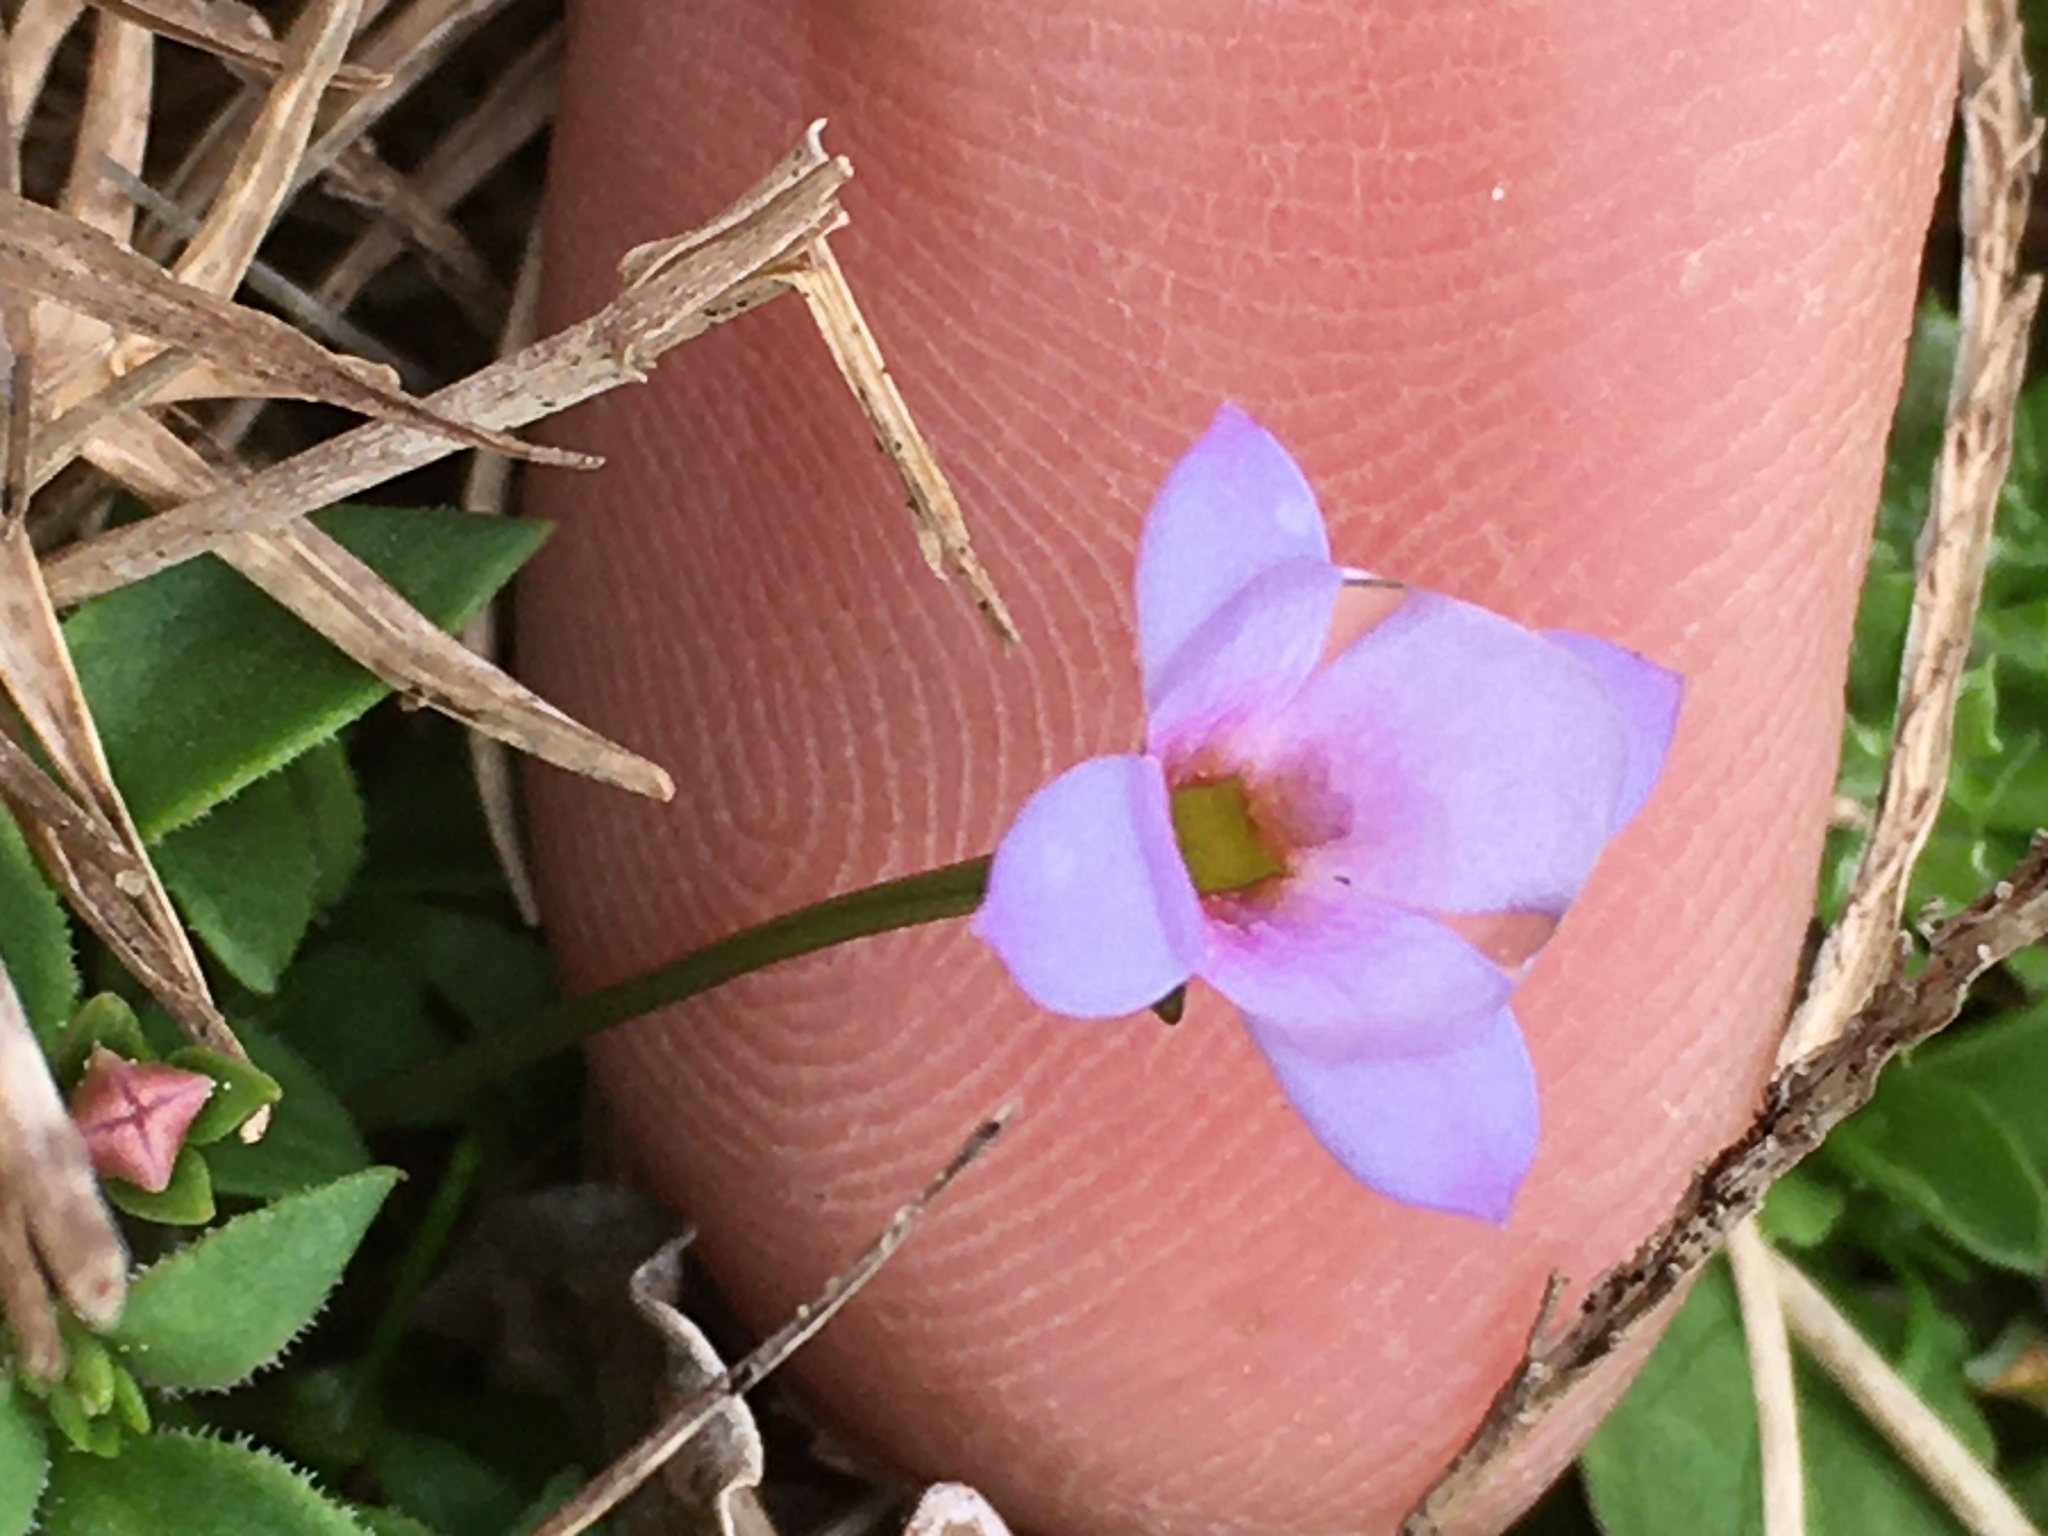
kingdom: Plantae
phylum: Tracheophyta
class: Magnoliopsida
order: Gentianales
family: Rubiaceae
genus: Houstonia
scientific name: Houstonia pusilla
